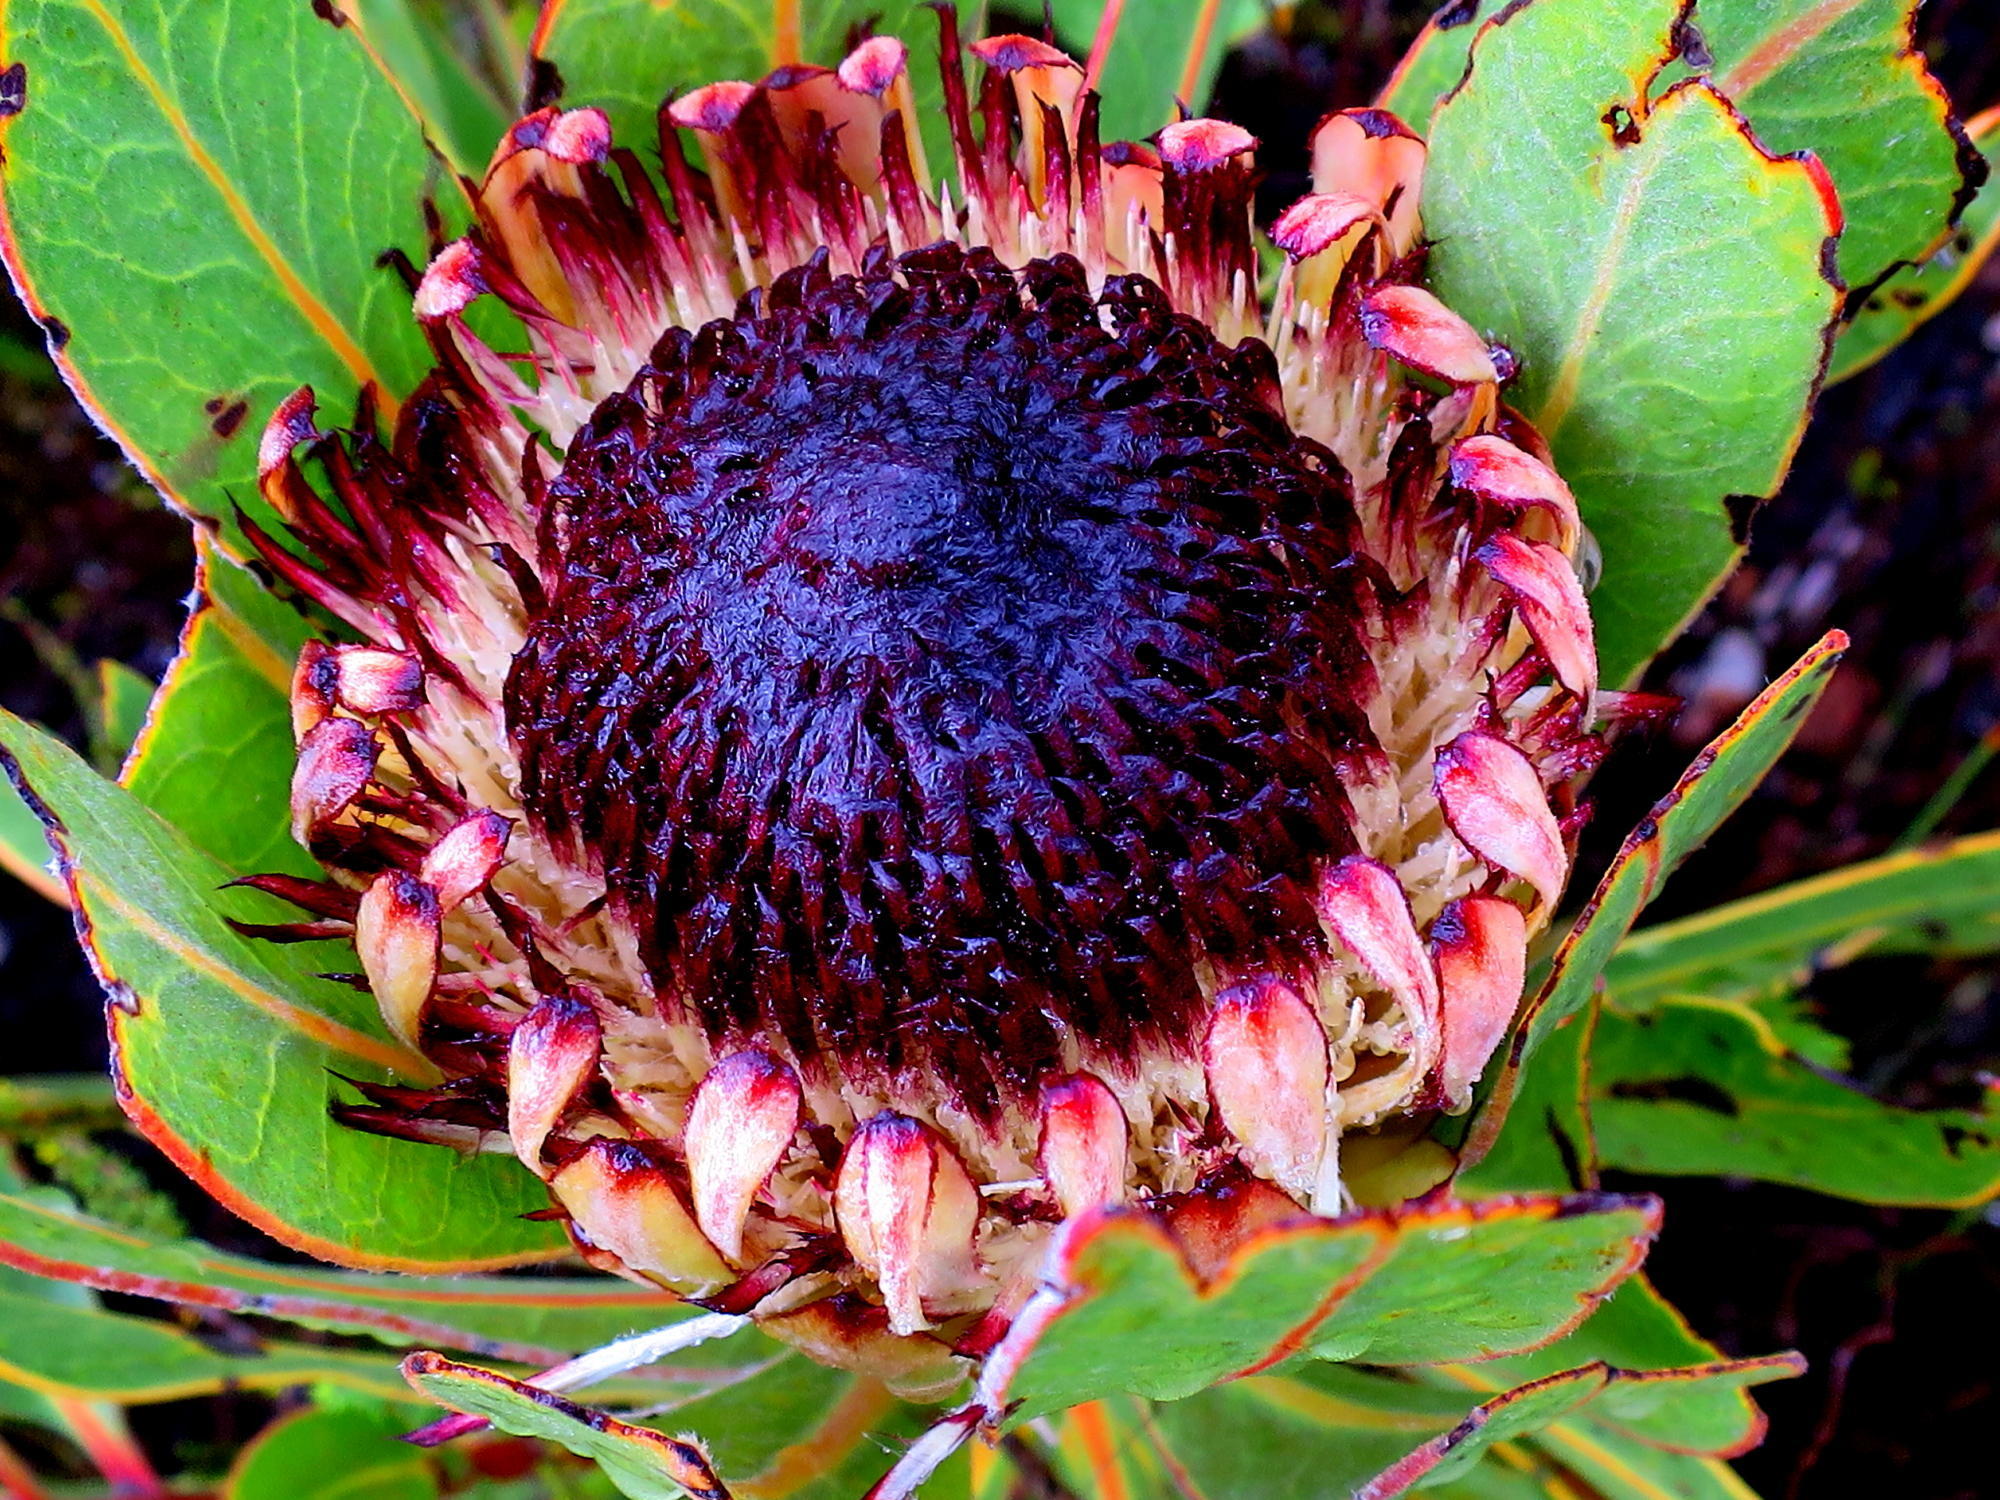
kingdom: Plantae
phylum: Tracheophyta
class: Magnoliopsida
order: Proteales
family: Proteaceae
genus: Protea
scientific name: Protea lorifolia
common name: Strap-leaved protea
